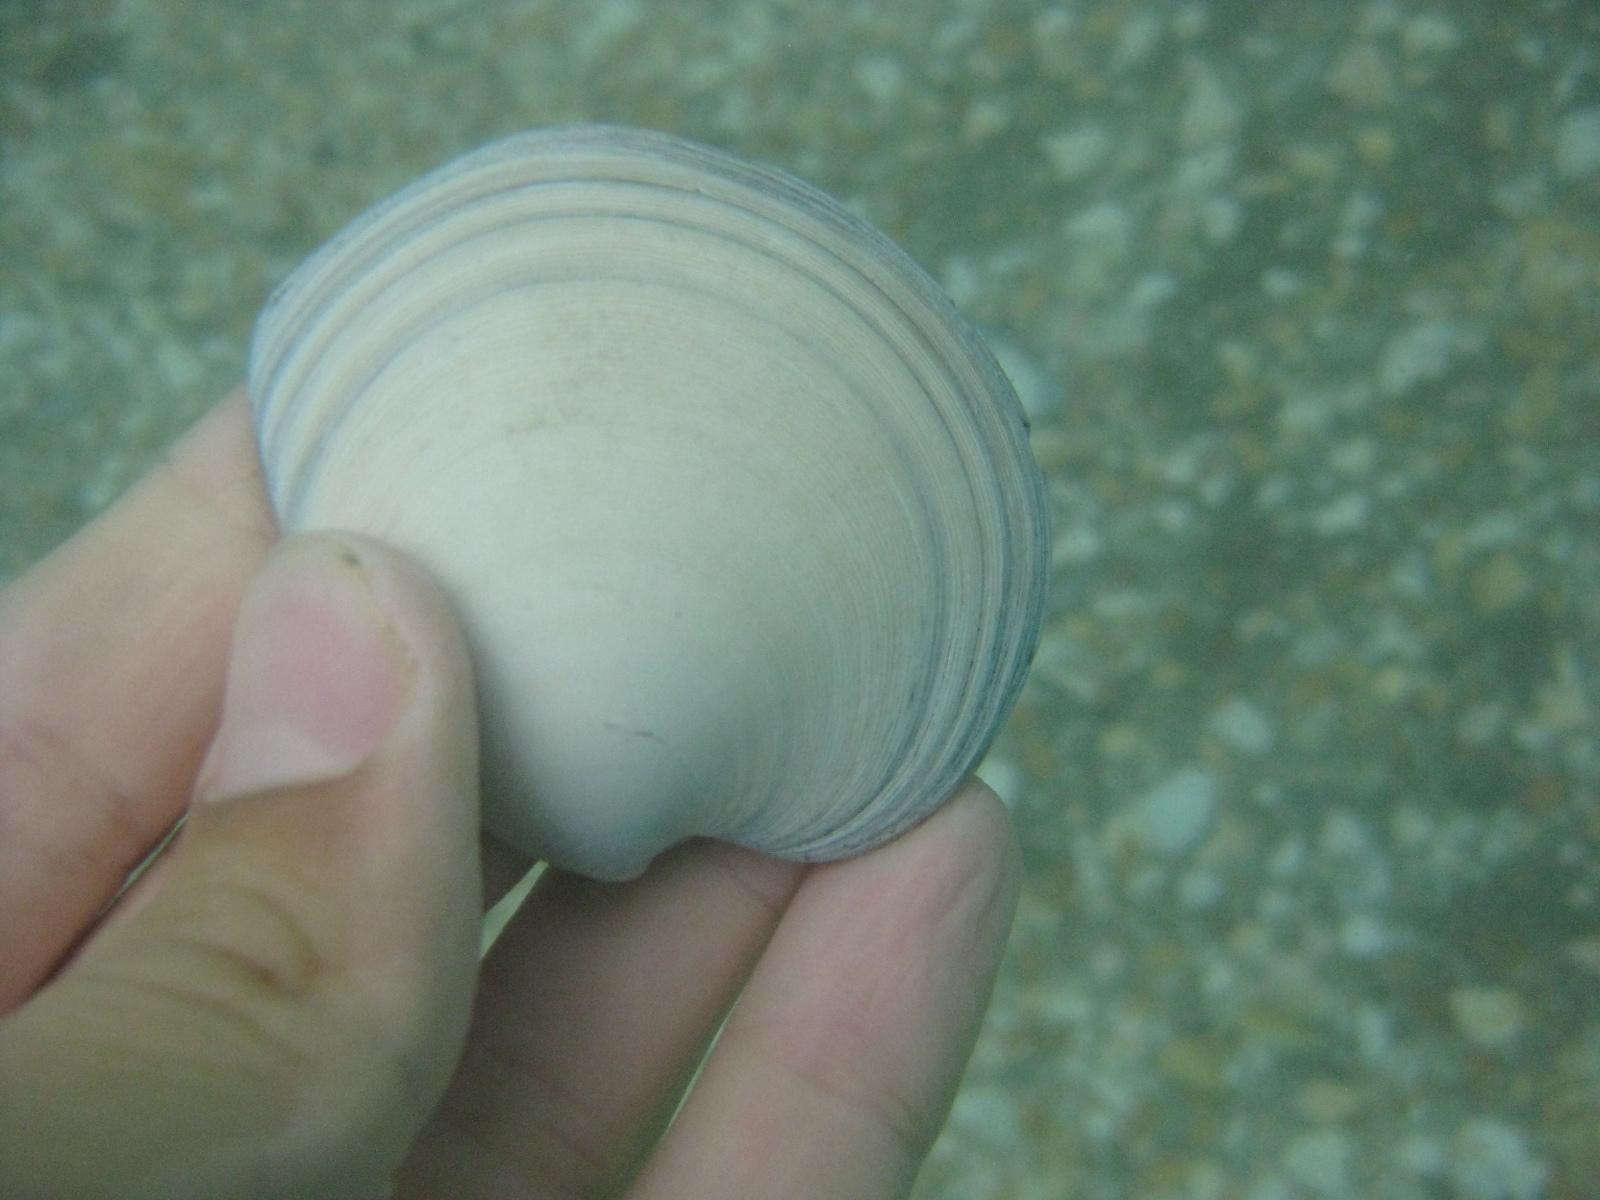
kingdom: Animalia
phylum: Mollusca
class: Bivalvia
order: Venerida
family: Veneridae
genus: Dosinia
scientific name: Dosinia subrosea
